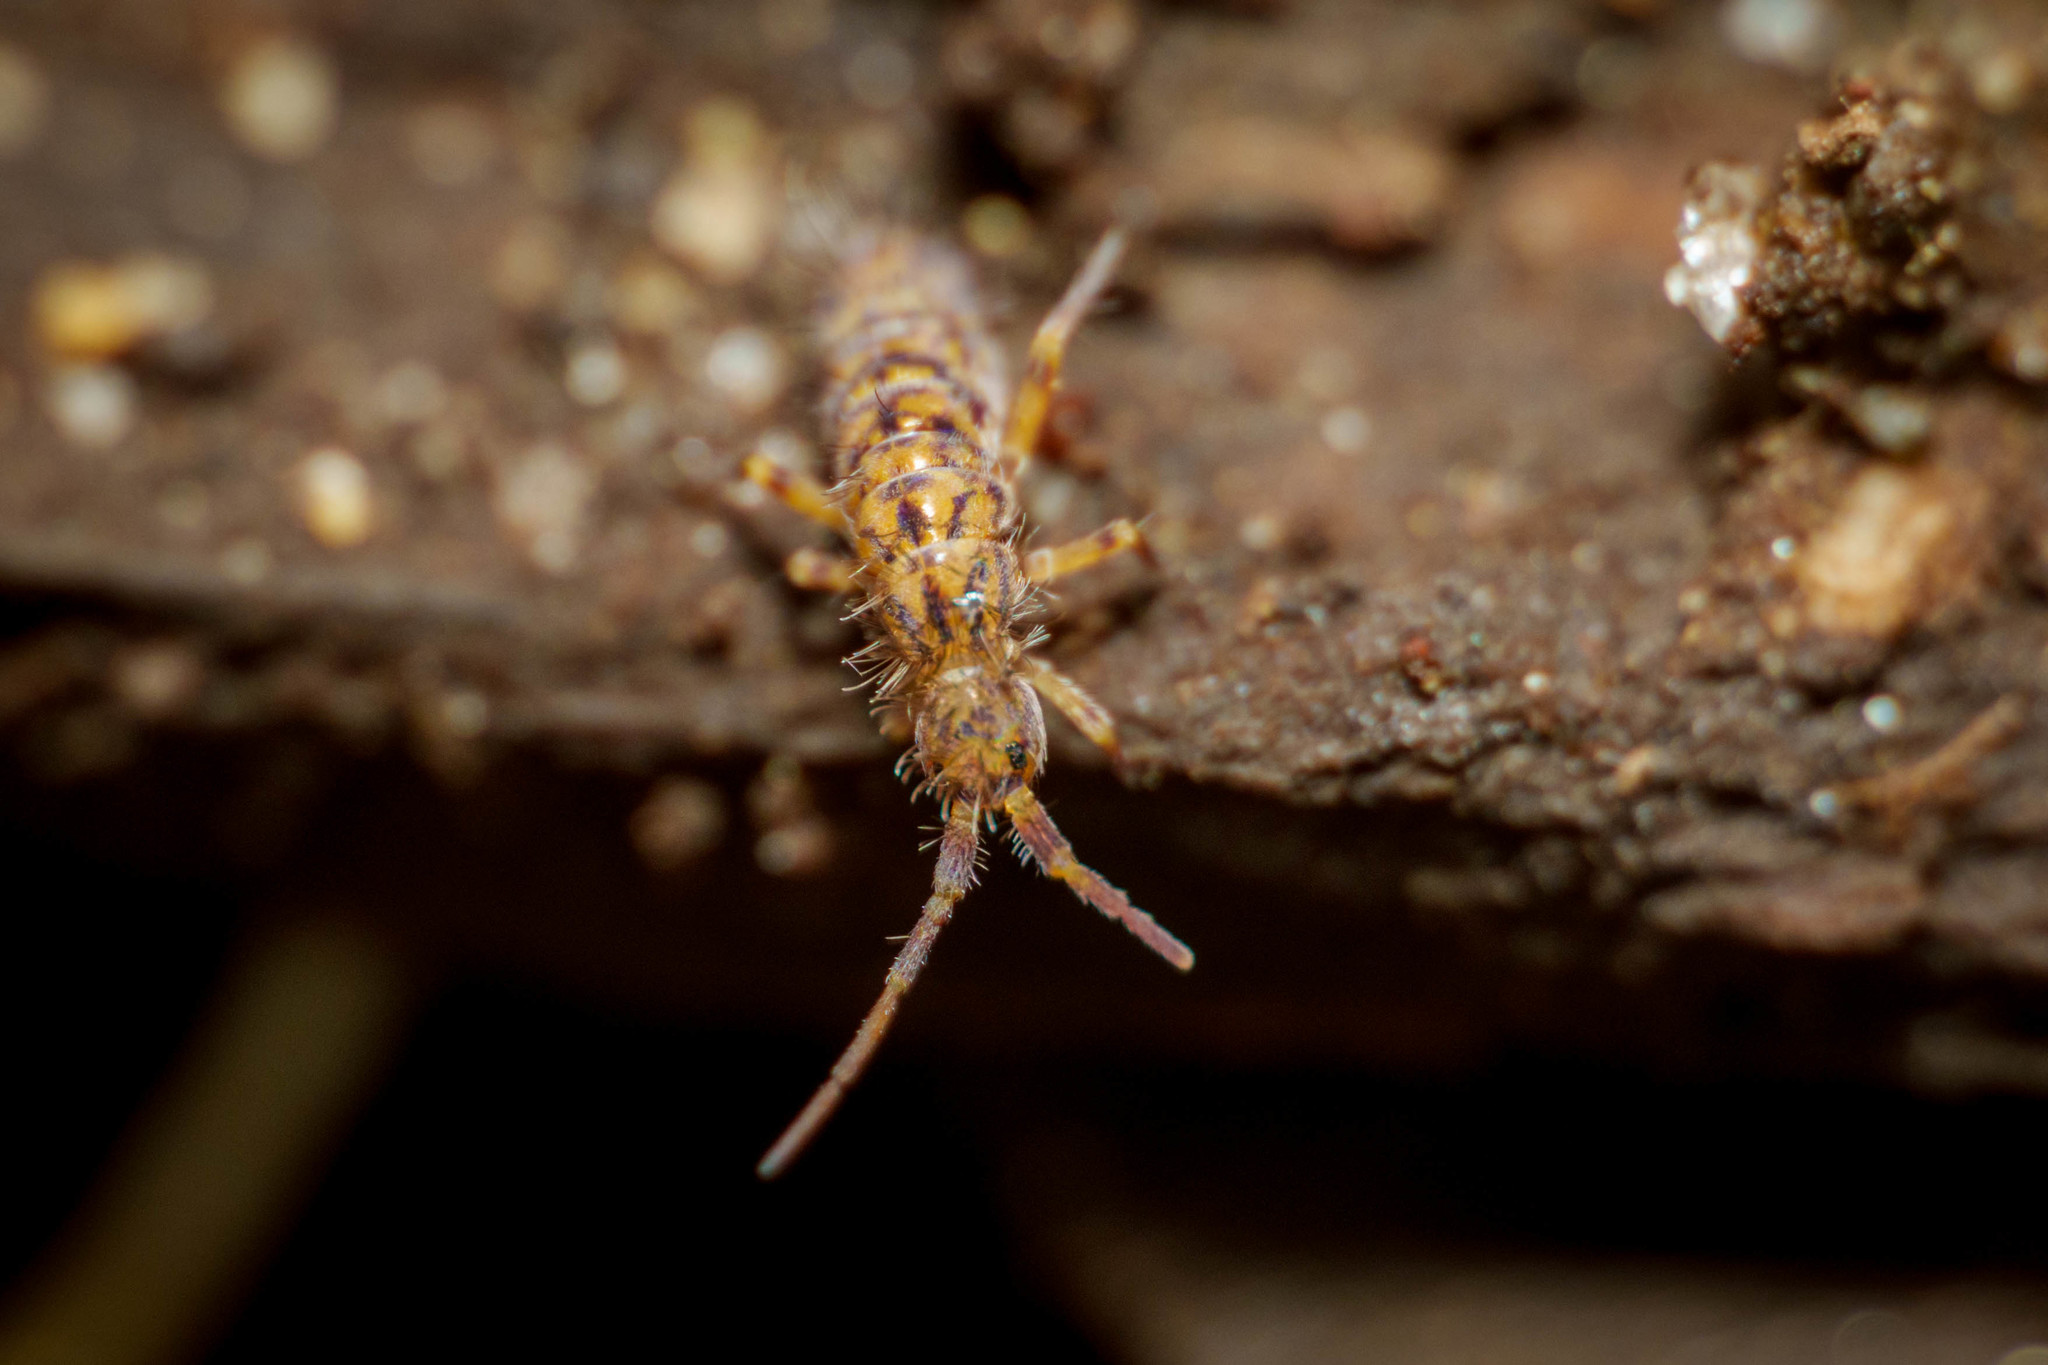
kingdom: Animalia
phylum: Arthropoda
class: Collembola
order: Entomobryomorpha
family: Orchesellidae
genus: Orchesella
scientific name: Orchesella villosa
